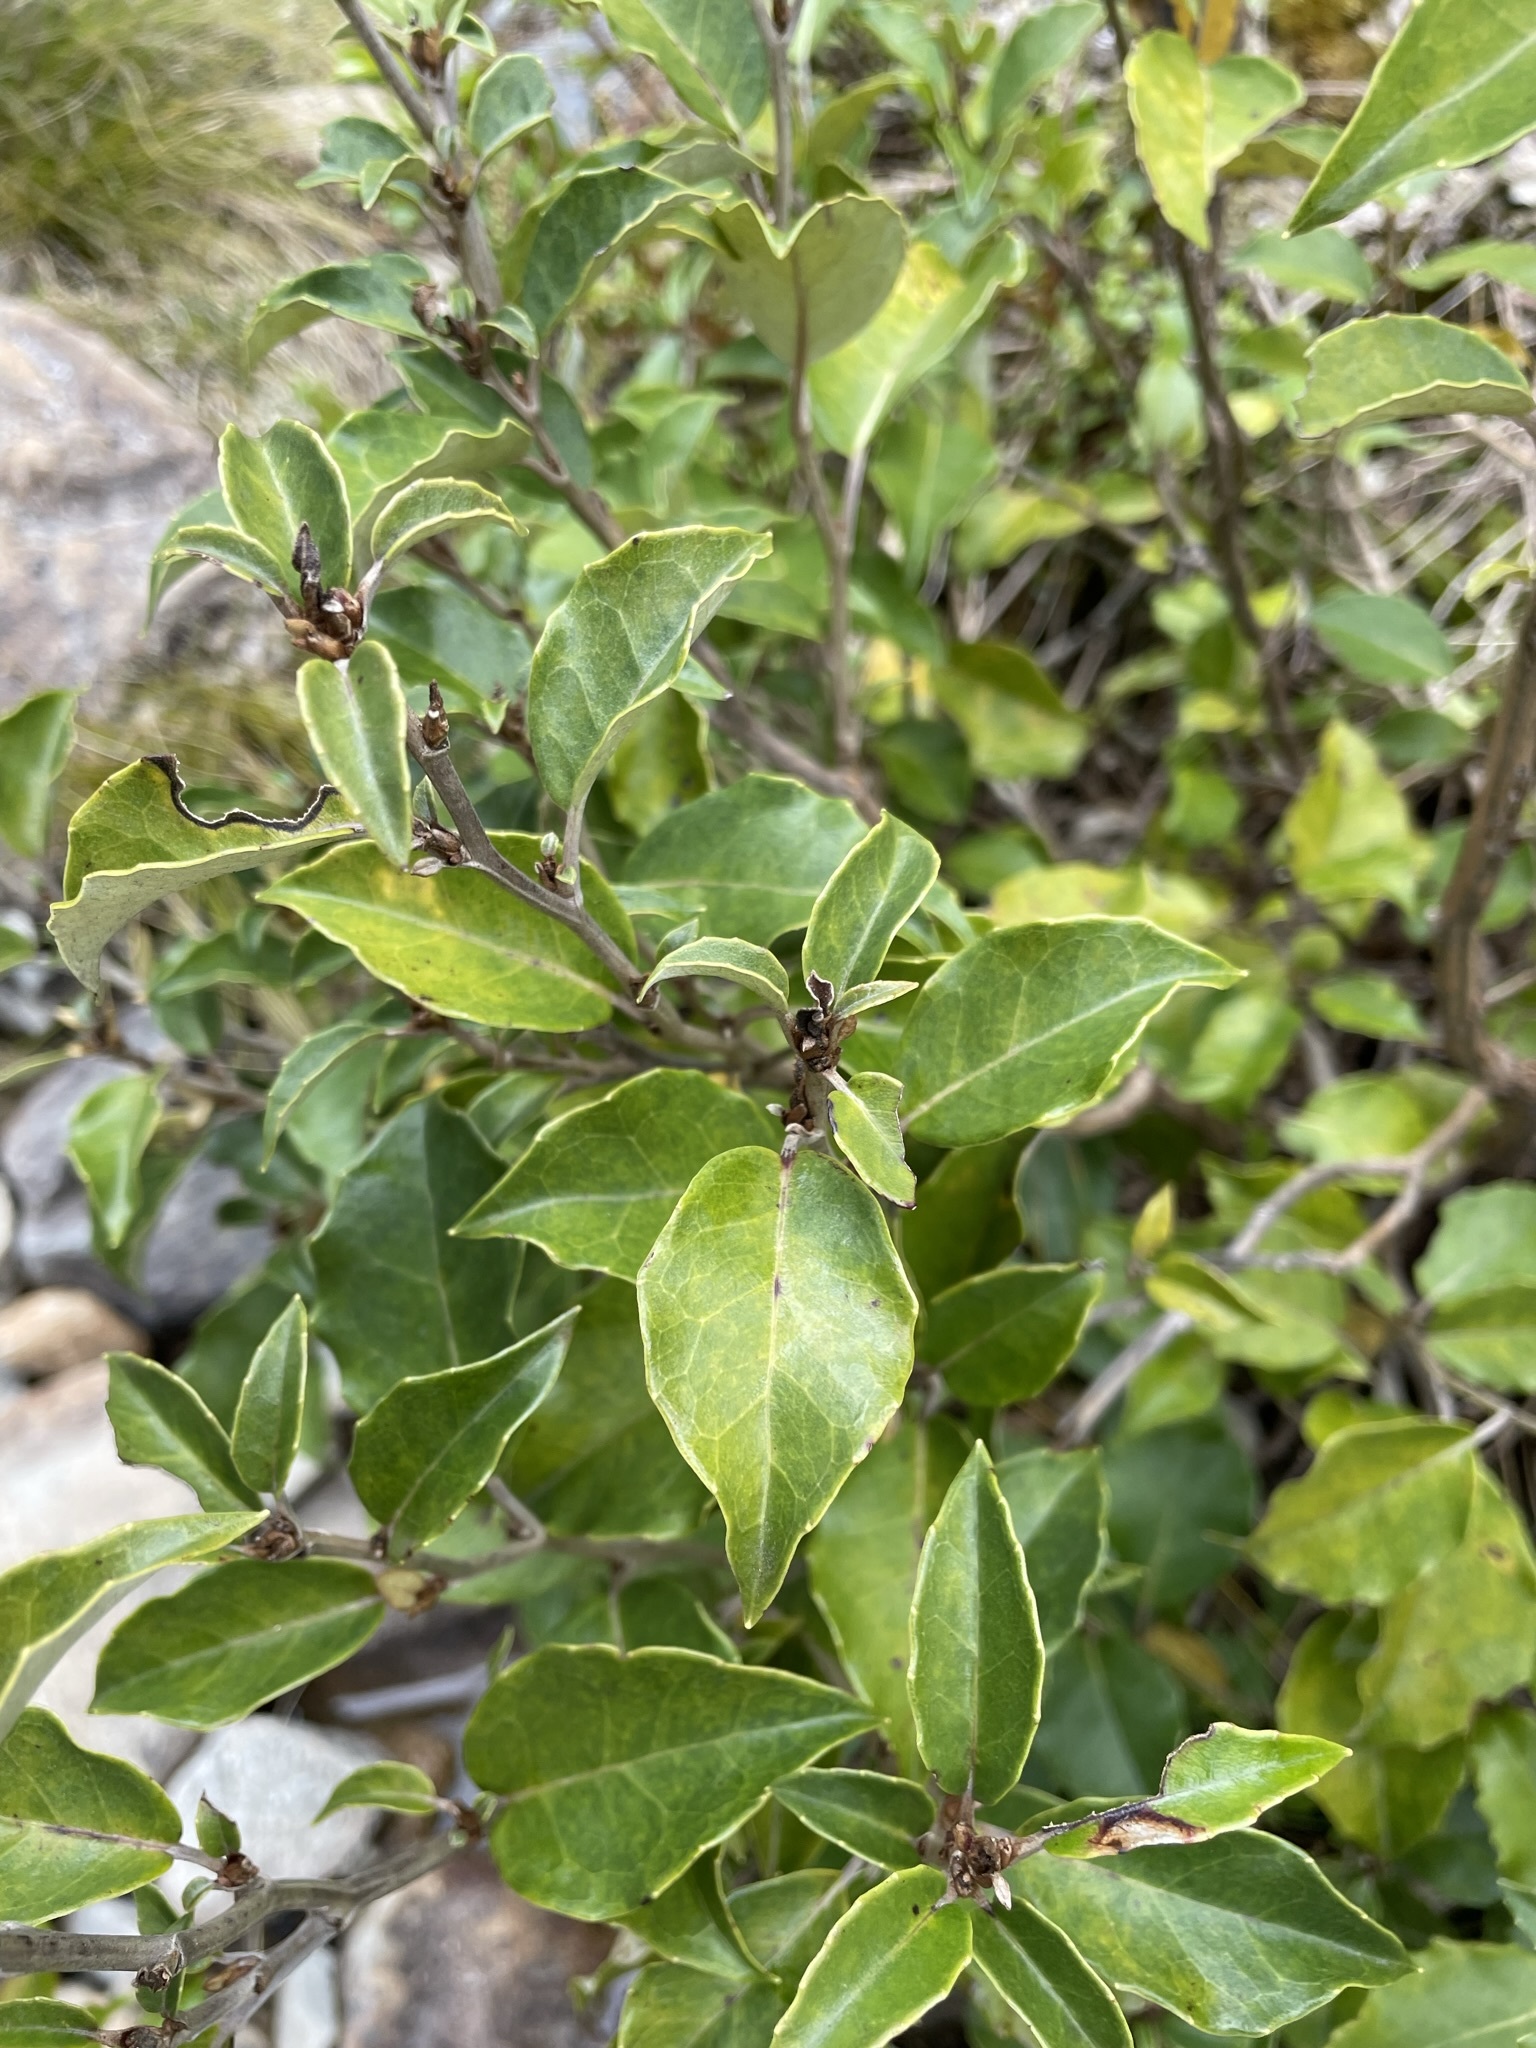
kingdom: Plantae
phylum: Tracheophyta
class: Magnoliopsida
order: Asterales
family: Asteraceae
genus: Olearia
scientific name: Olearia arborescens
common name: Glossy tree daisy
